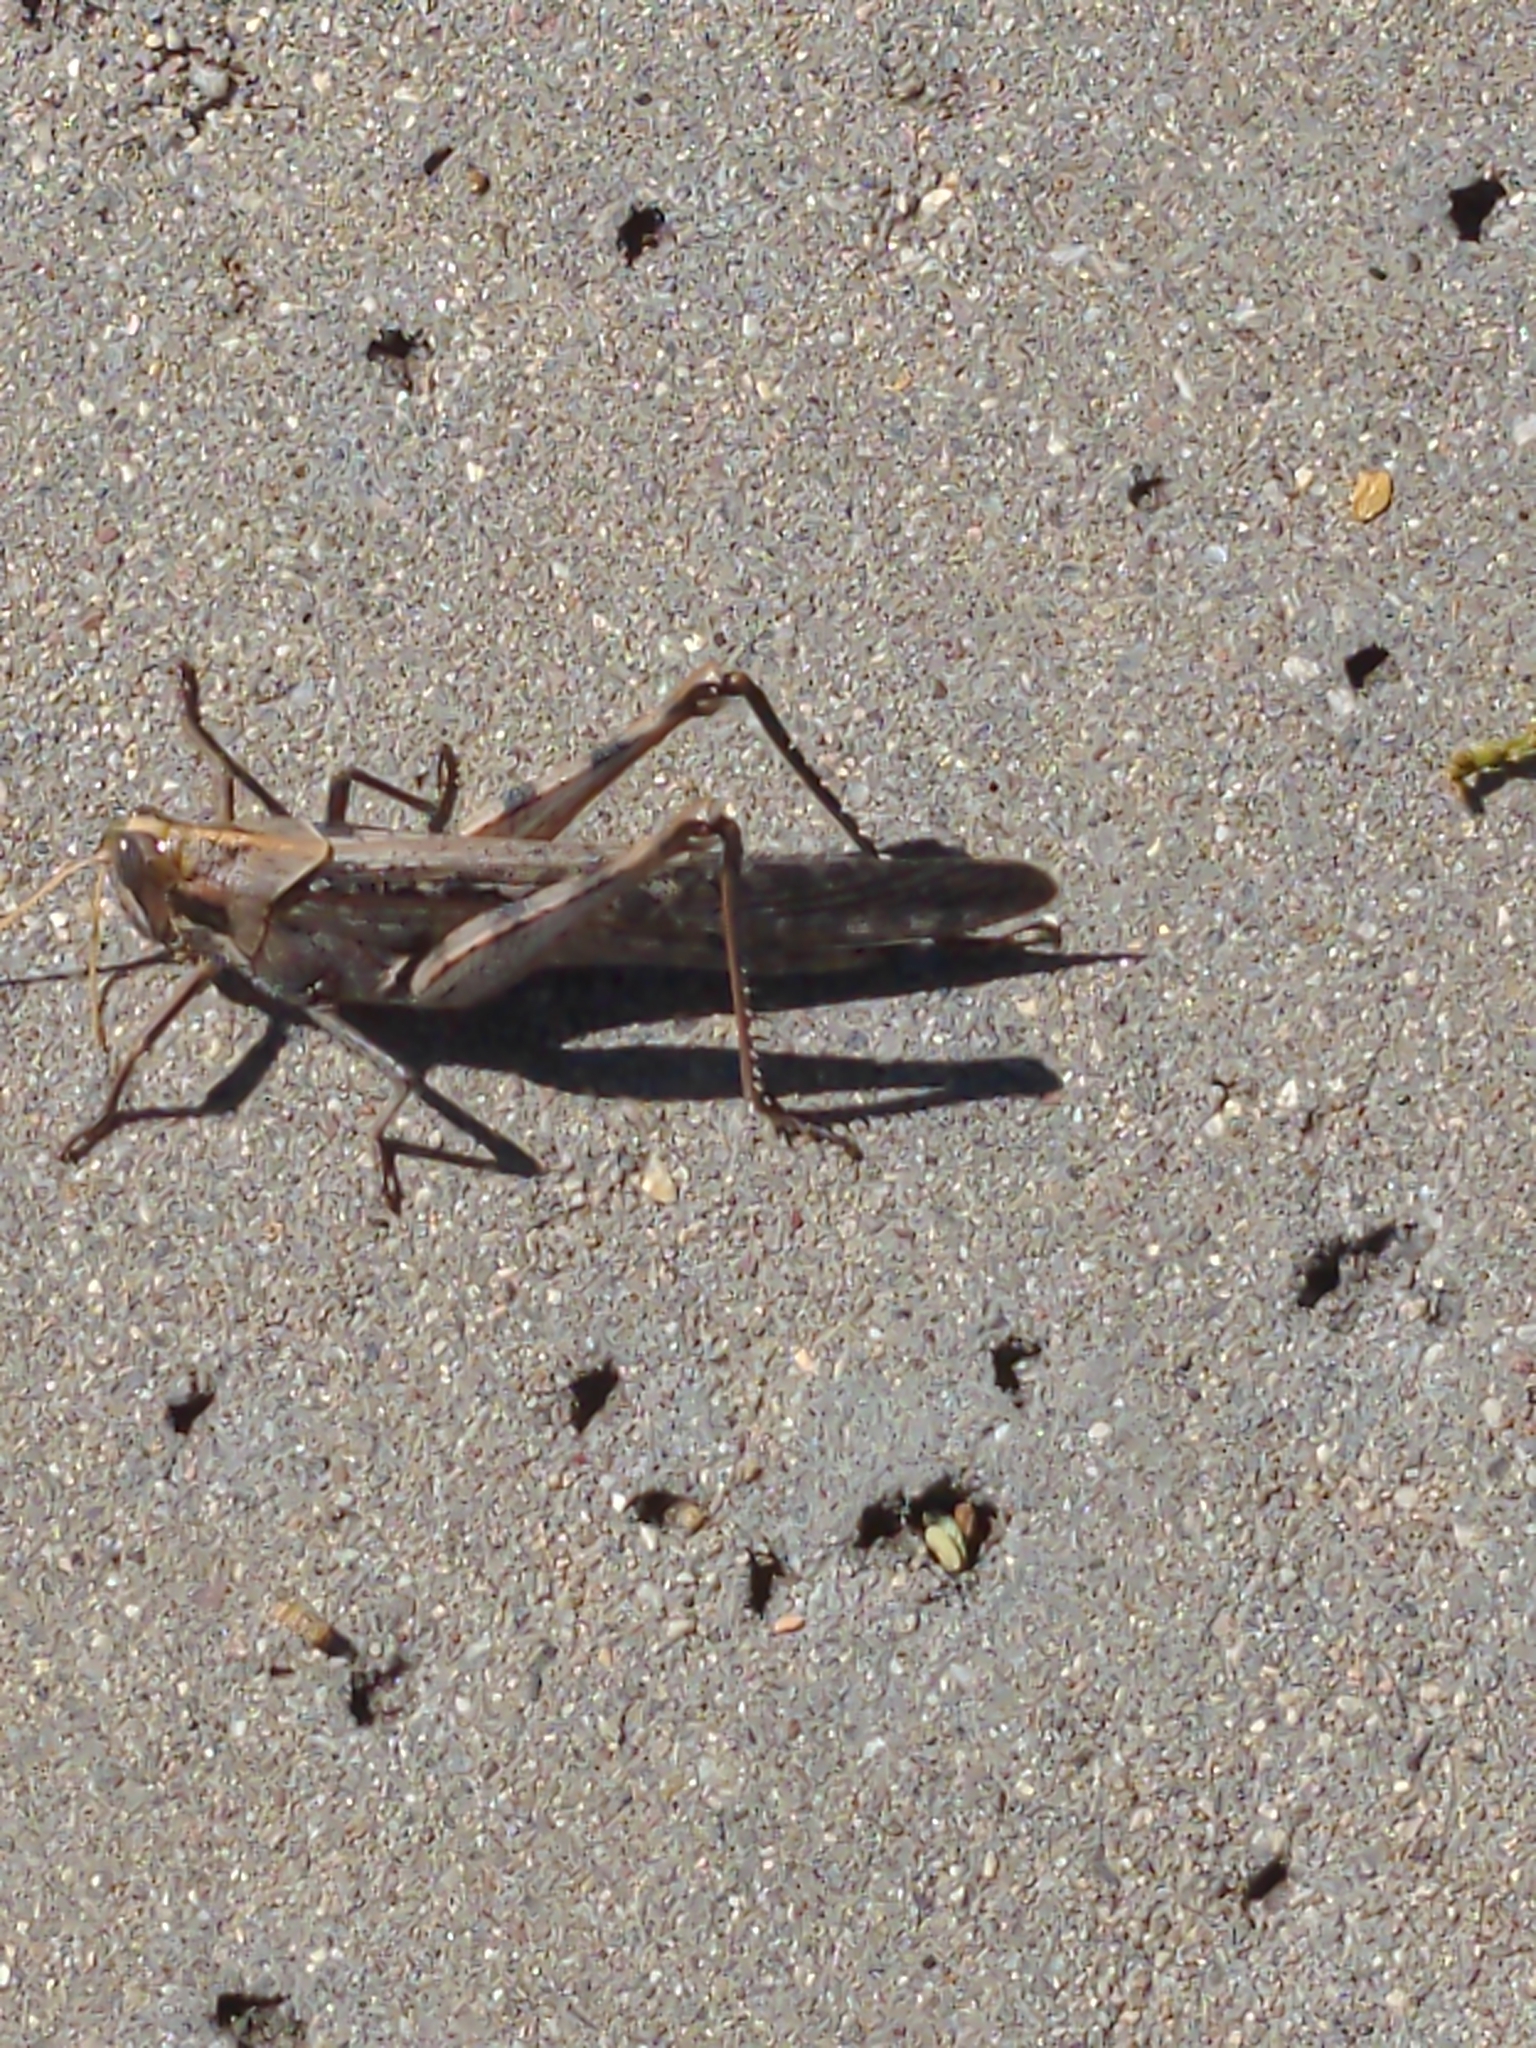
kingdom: Animalia
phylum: Arthropoda
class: Insecta
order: Orthoptera
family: Acrididae
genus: Schistocerca
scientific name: Schistocerca nitens
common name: Vagrant grasshopper
